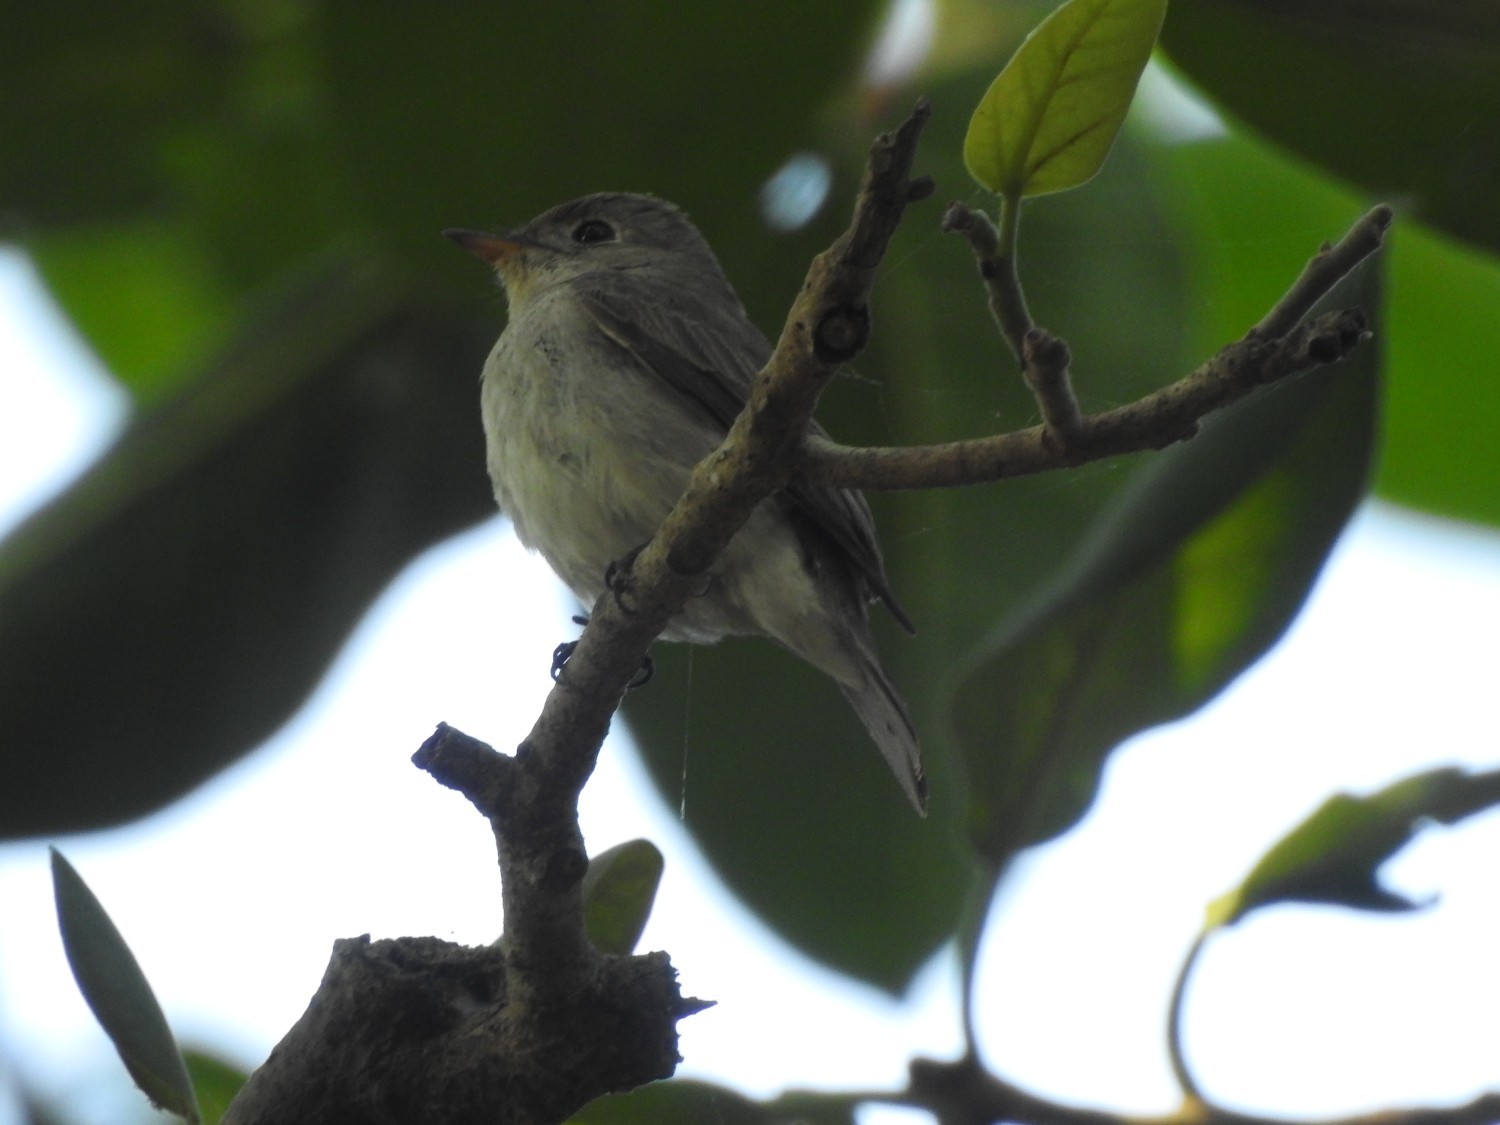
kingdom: Animalia
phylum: Chordata
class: Aves
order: Passeriformes
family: Muscicapidae
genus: Muscicapa
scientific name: Muscicapa latirostris
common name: Asian brown flycatcher
